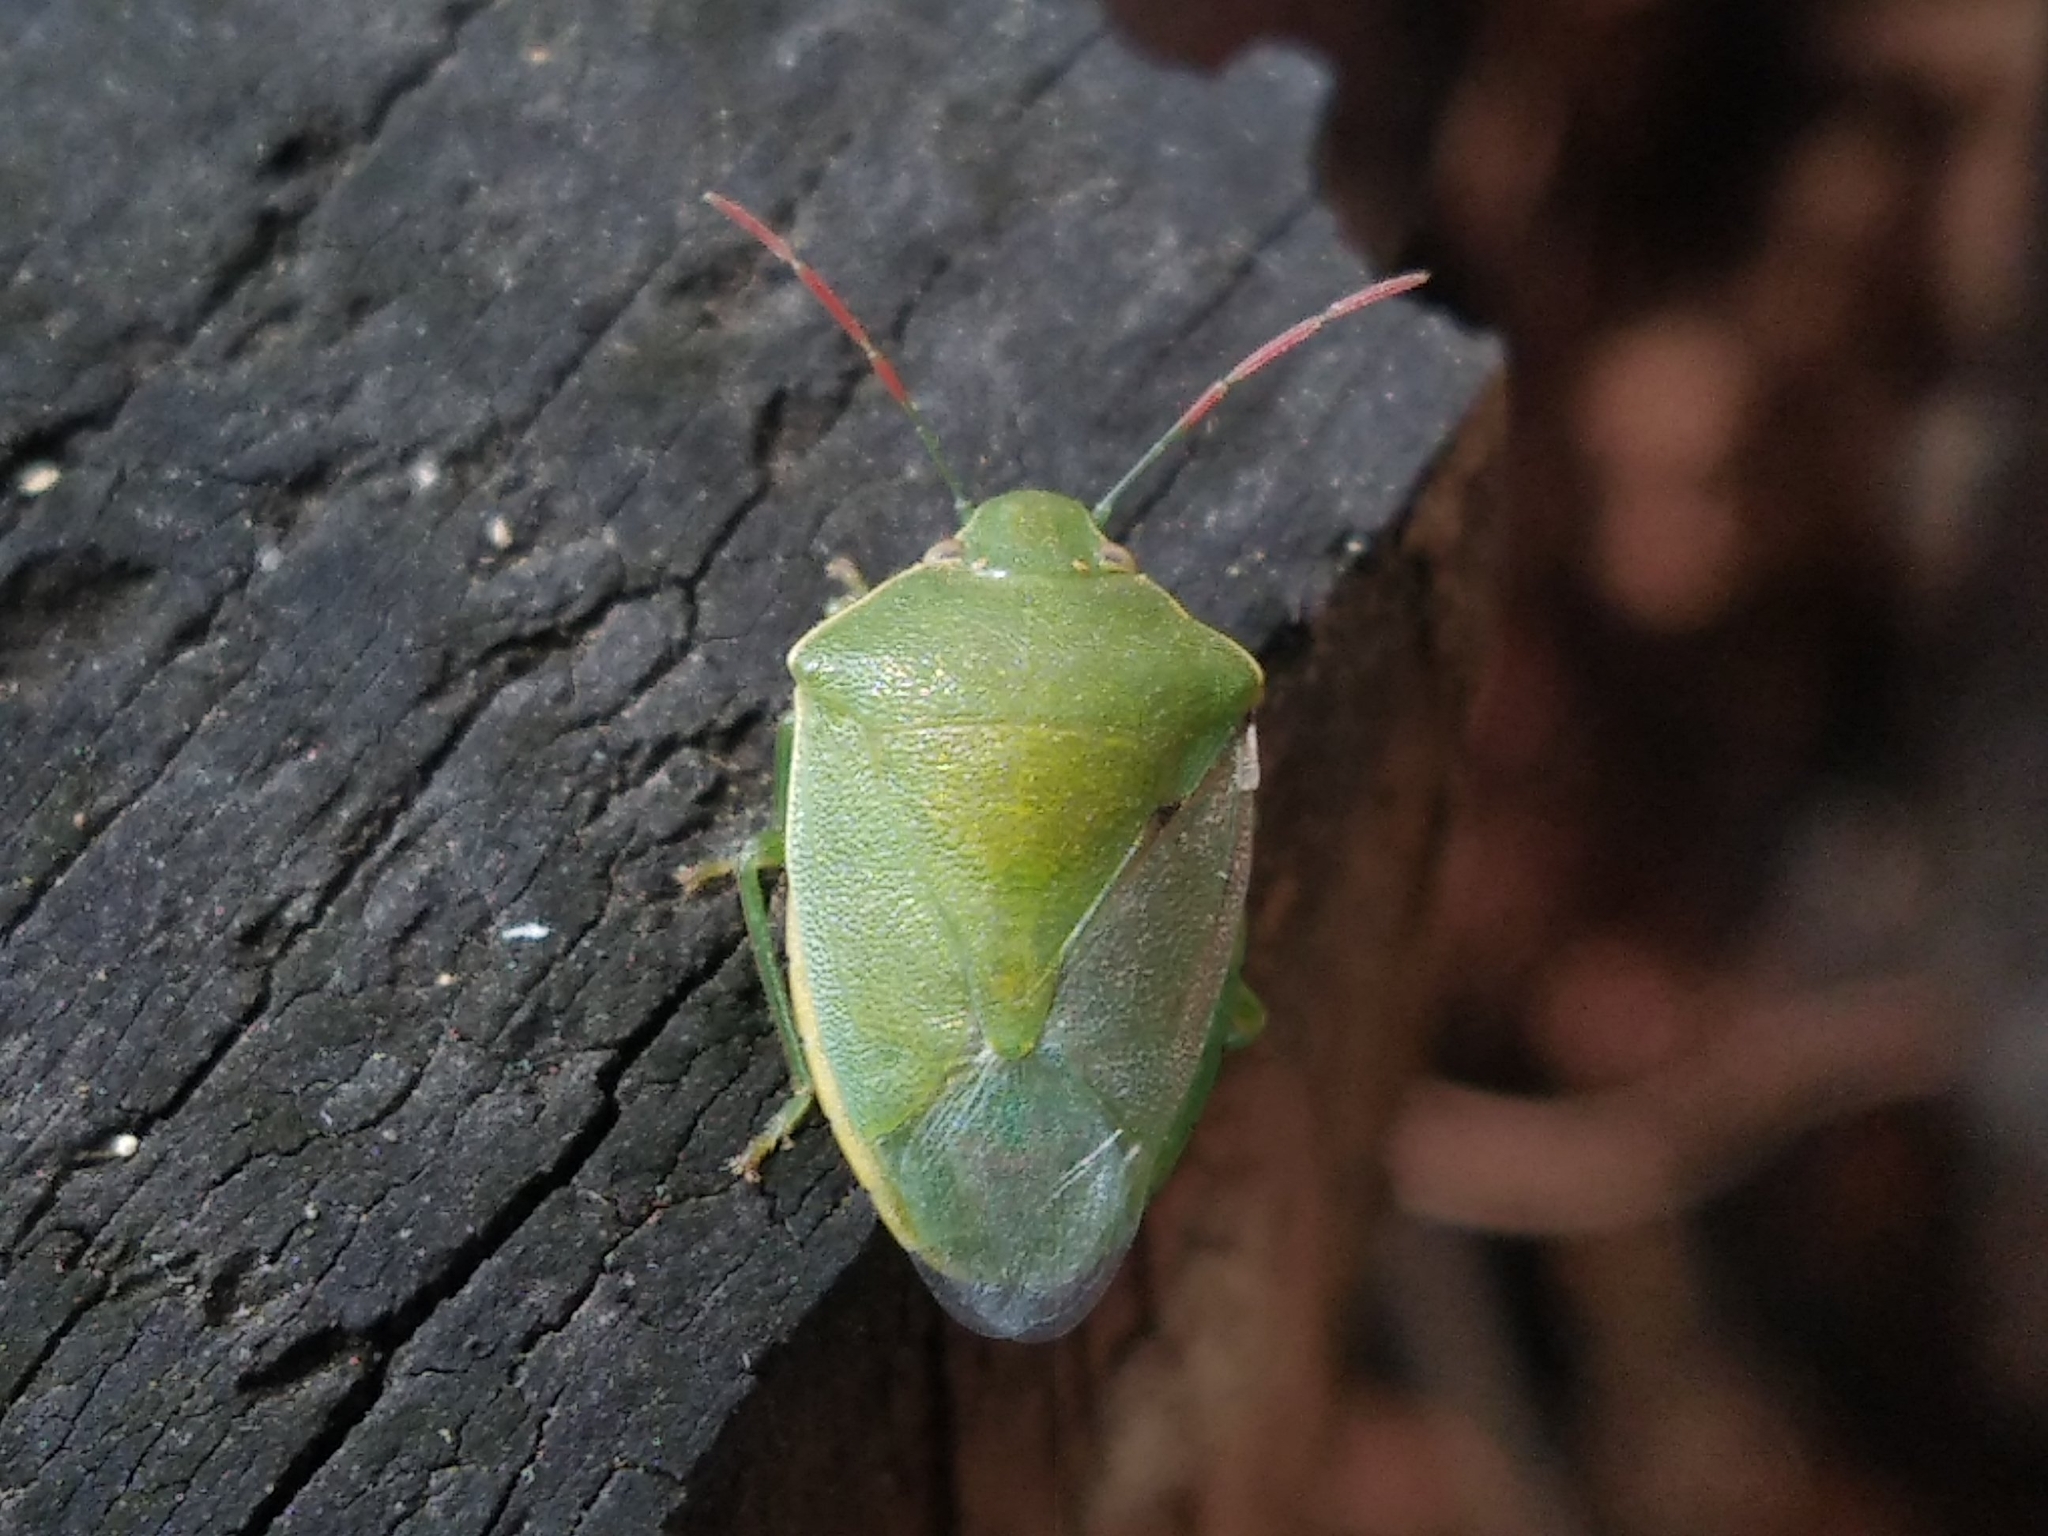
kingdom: Animalia
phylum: Arthropoda
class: Insecta
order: Hemiptera
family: Pentatomidae
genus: Acrosternum
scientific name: Acrosternum heegeri
